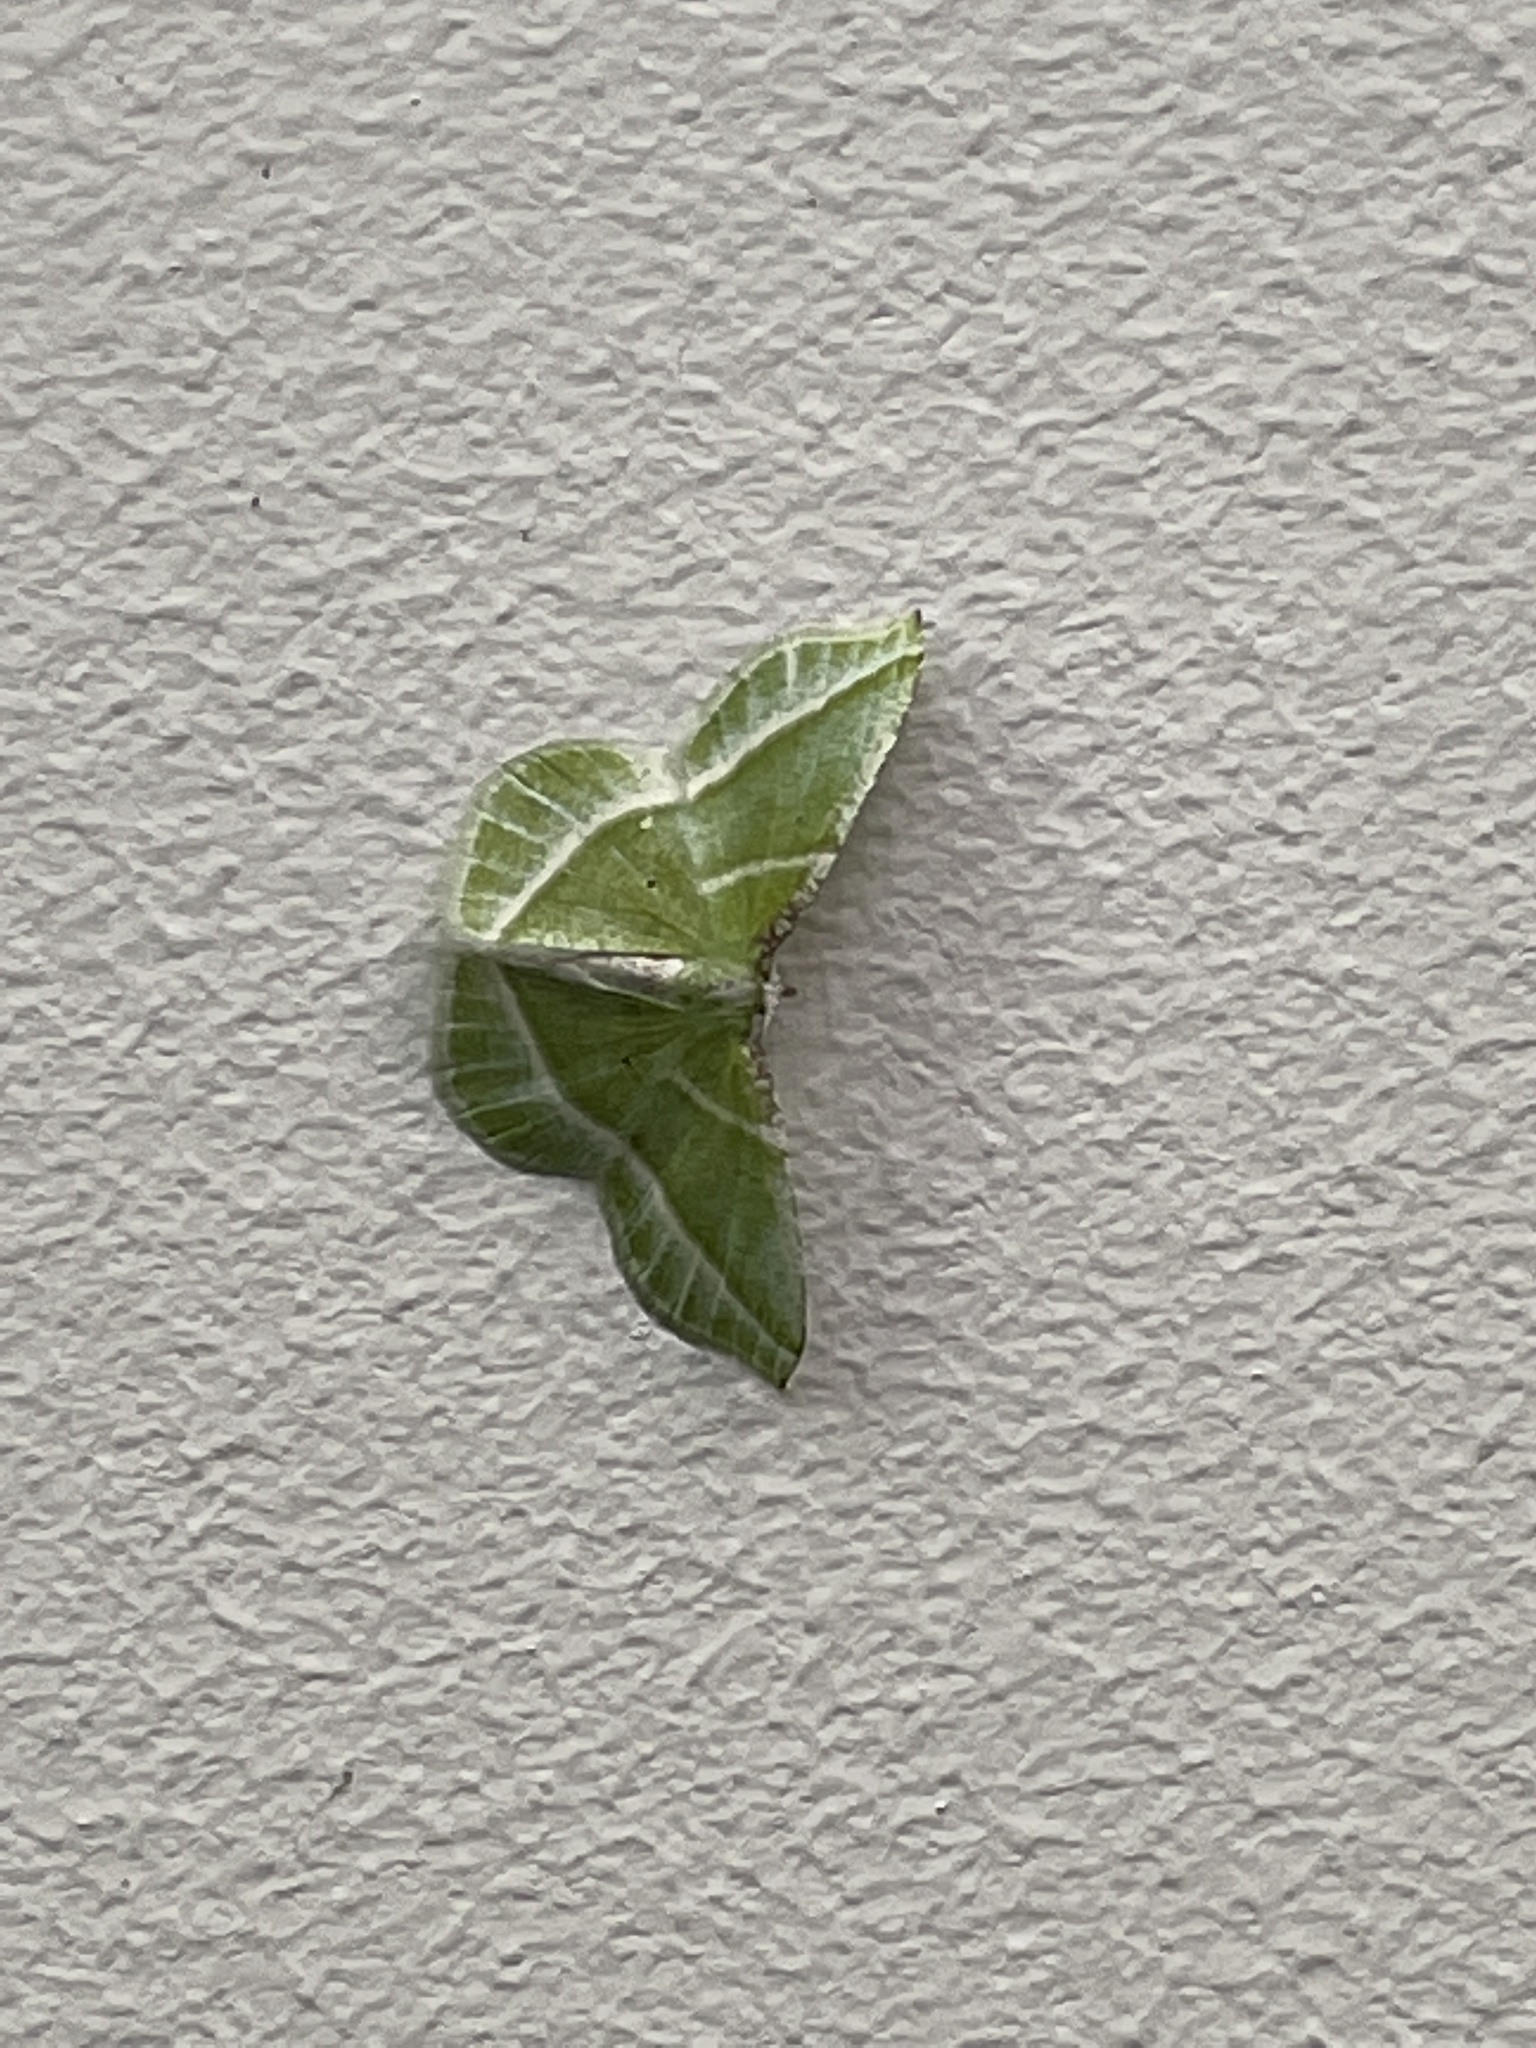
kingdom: Animalia
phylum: Arthropoda
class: Insecta
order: Lepidoptera
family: Geometridae
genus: Dichorda
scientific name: Dichorda iridaria
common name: Showy emerald
